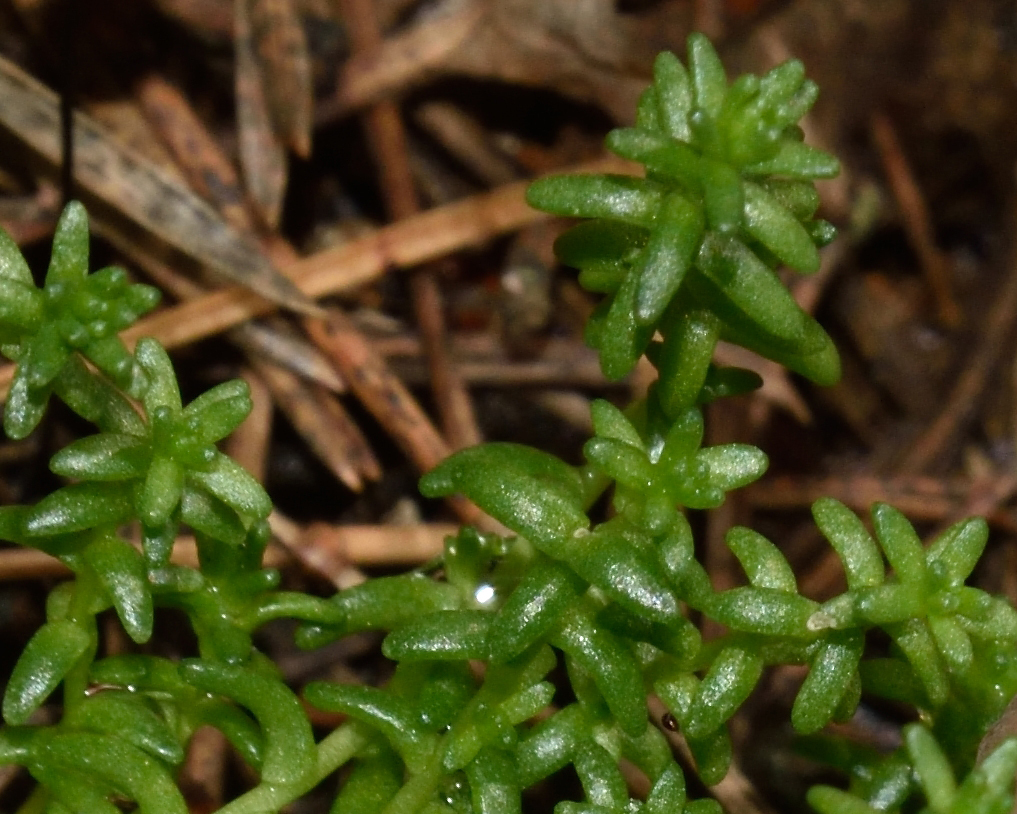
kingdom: Plantae
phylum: Tracheophyta
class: Magnoliopsida
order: Saxifragales
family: Crassulaceae
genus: Sedum
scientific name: Sedum acre
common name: Biting stonecrop
